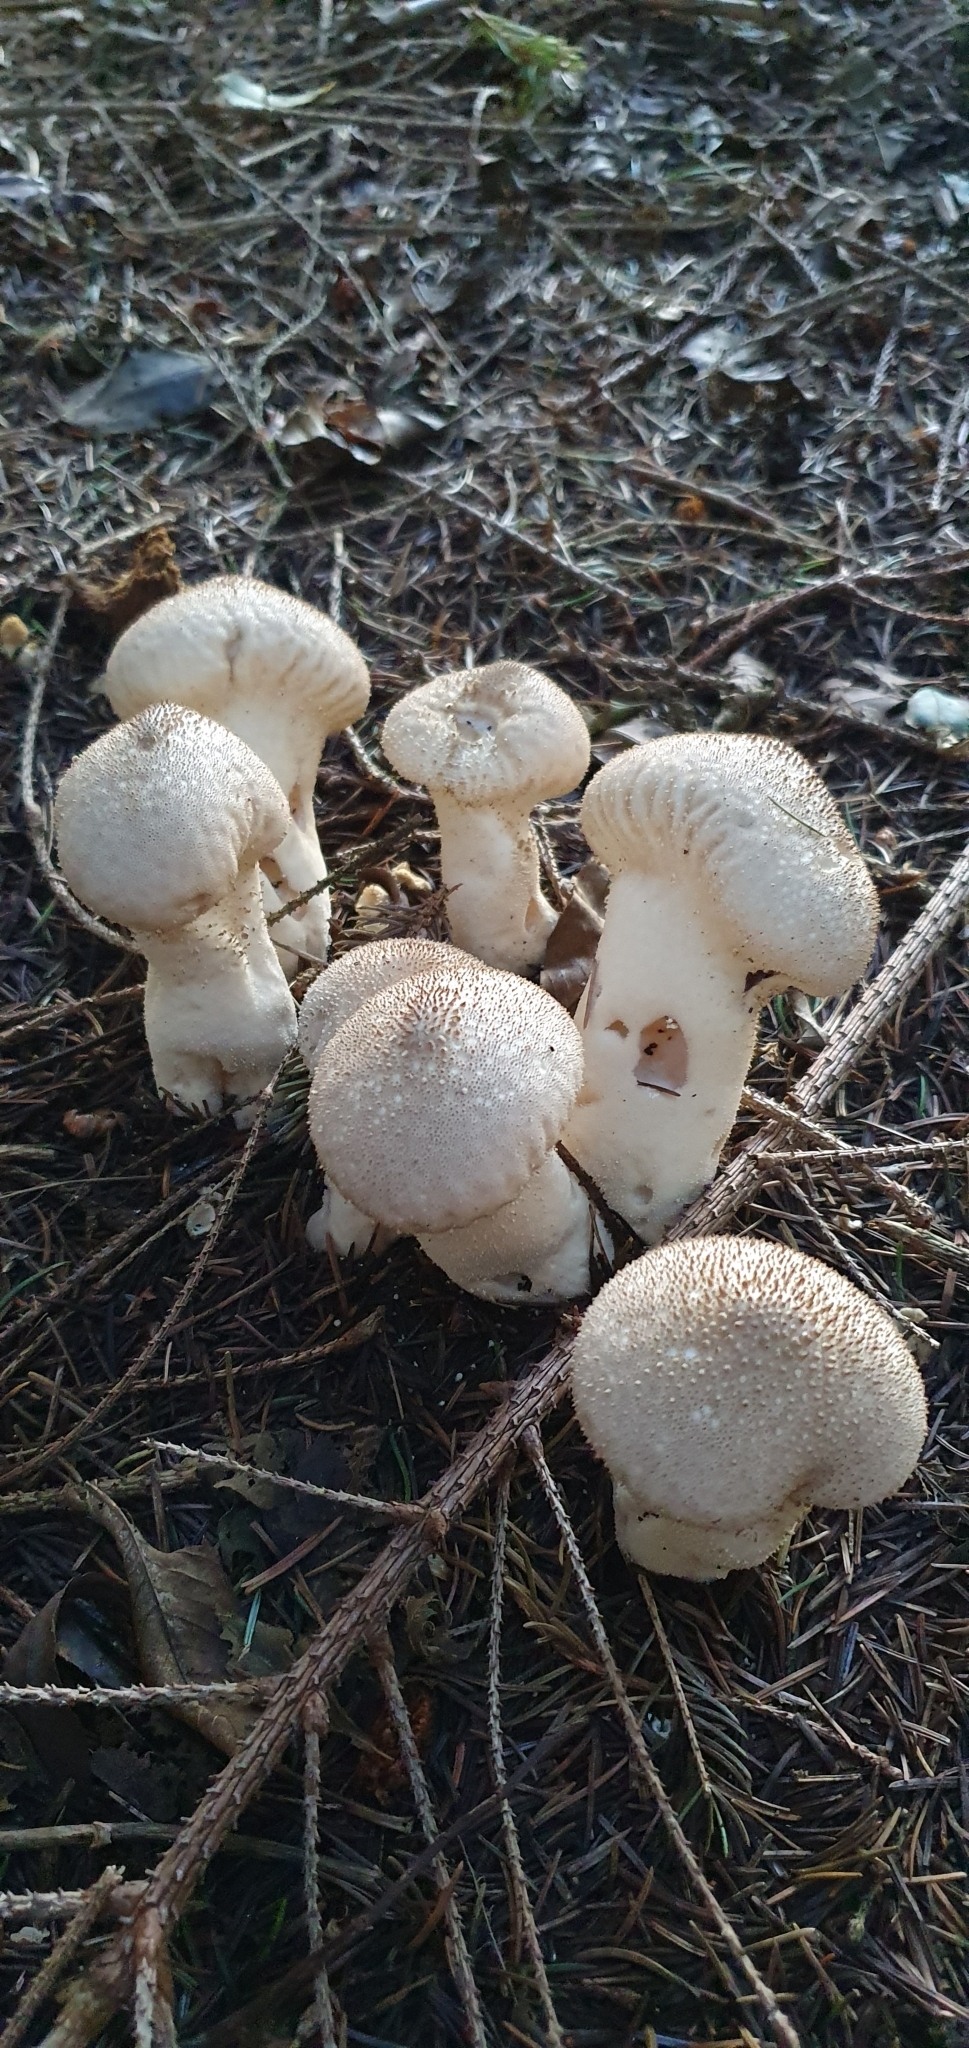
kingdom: Fungi
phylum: Basidiomycota
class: Agaricomycetes
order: Agaricales
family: Lycoperdaceae
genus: Lycoperdon
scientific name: Lycoperdon perlatum
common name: Common puffball
